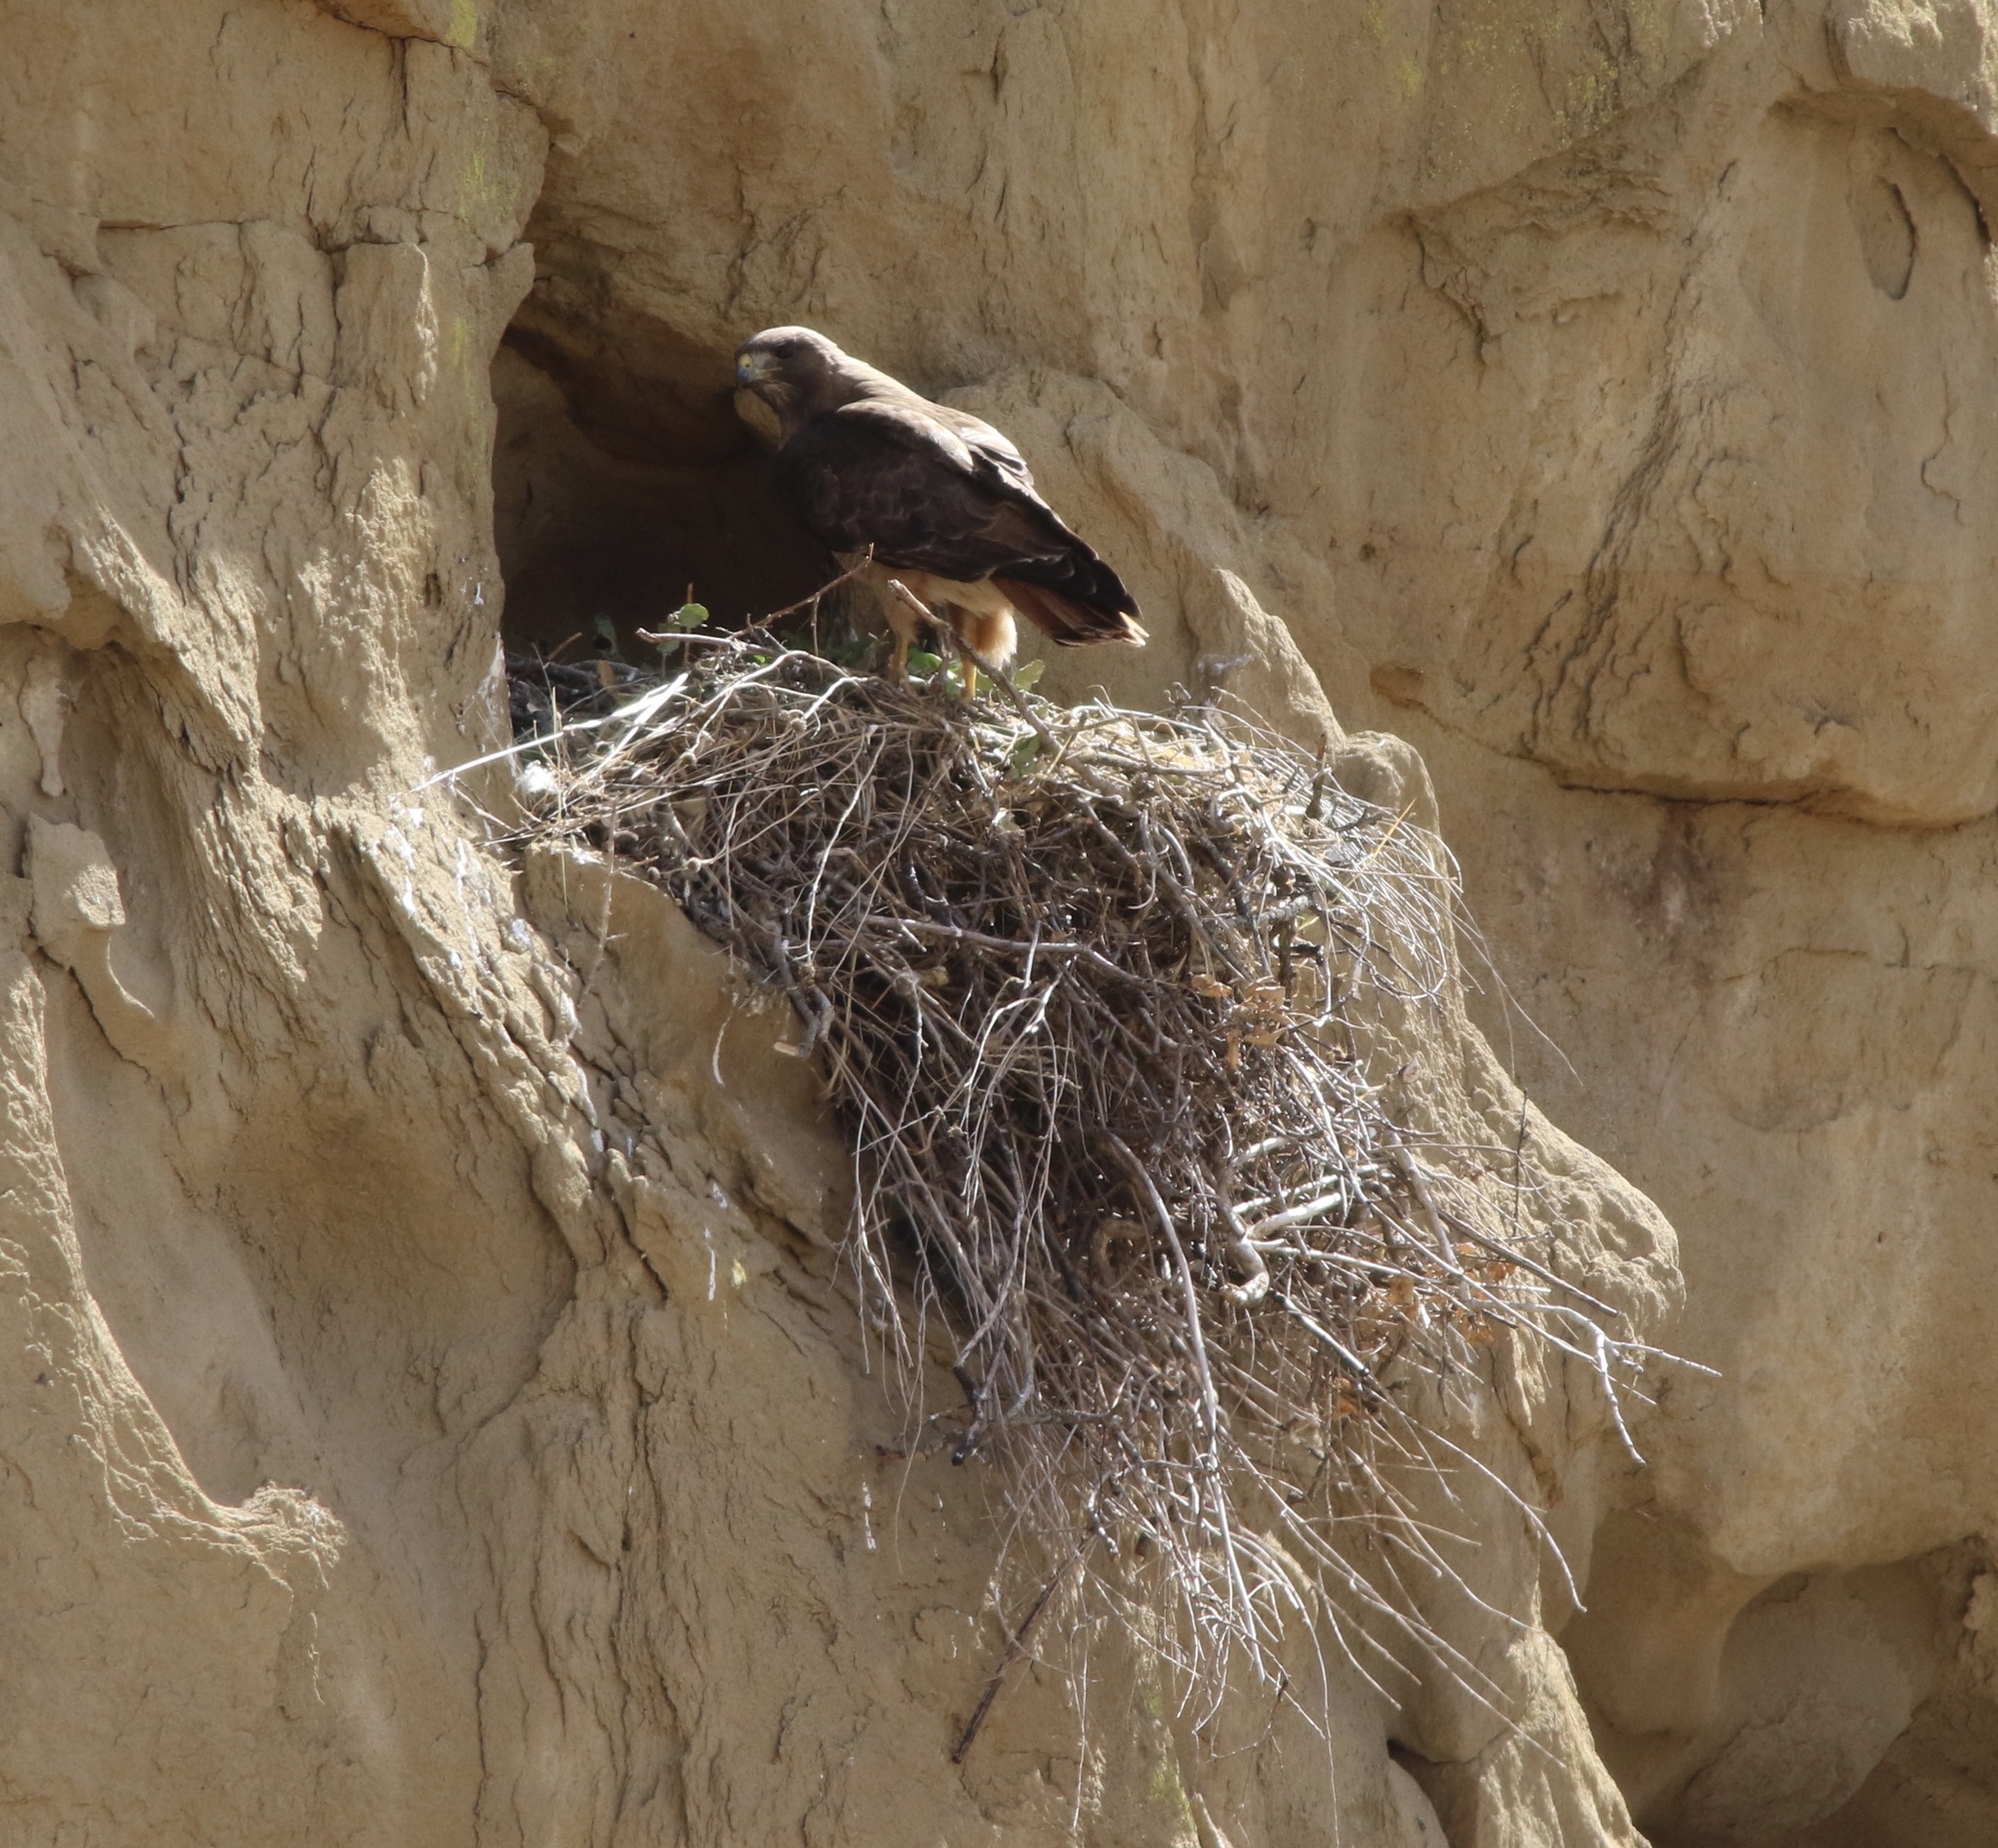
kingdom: Animalia
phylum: Chordata
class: Aves
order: Accipitriformes
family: Accipitridae
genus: Buteo
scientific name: Buteo jamaicensis
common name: Red-tailed hawk
